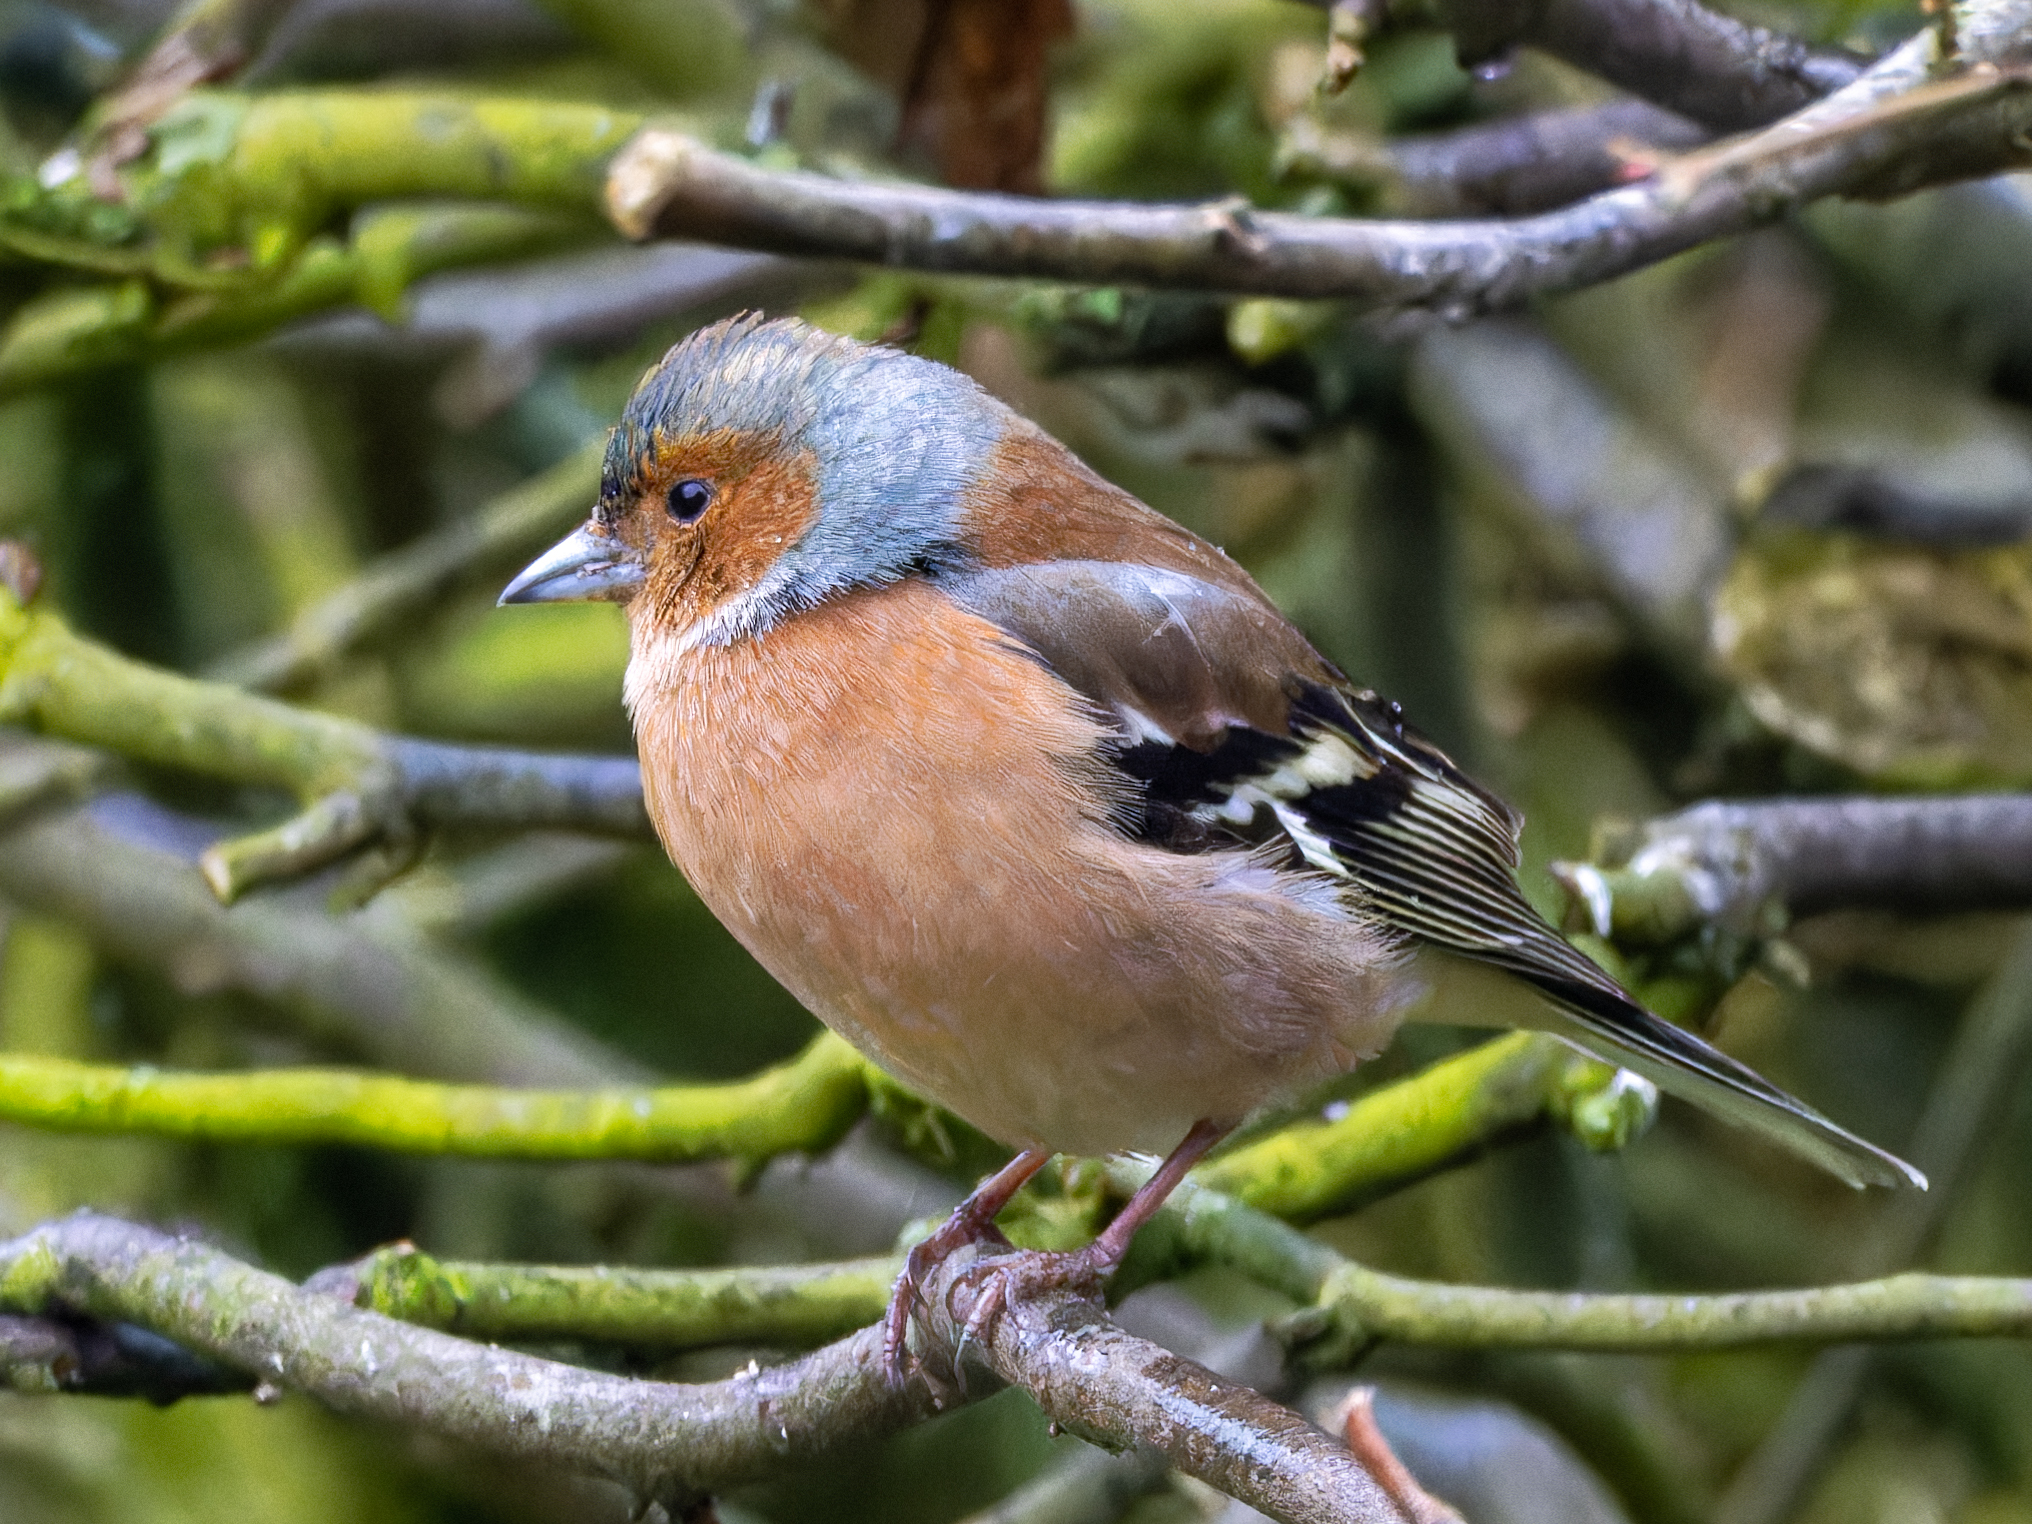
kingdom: Animalia
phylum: Chordata
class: Aves
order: Passeriformes
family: Fringillidae
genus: Fringilla
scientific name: Fringilla coelebs
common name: Common chaffinch
